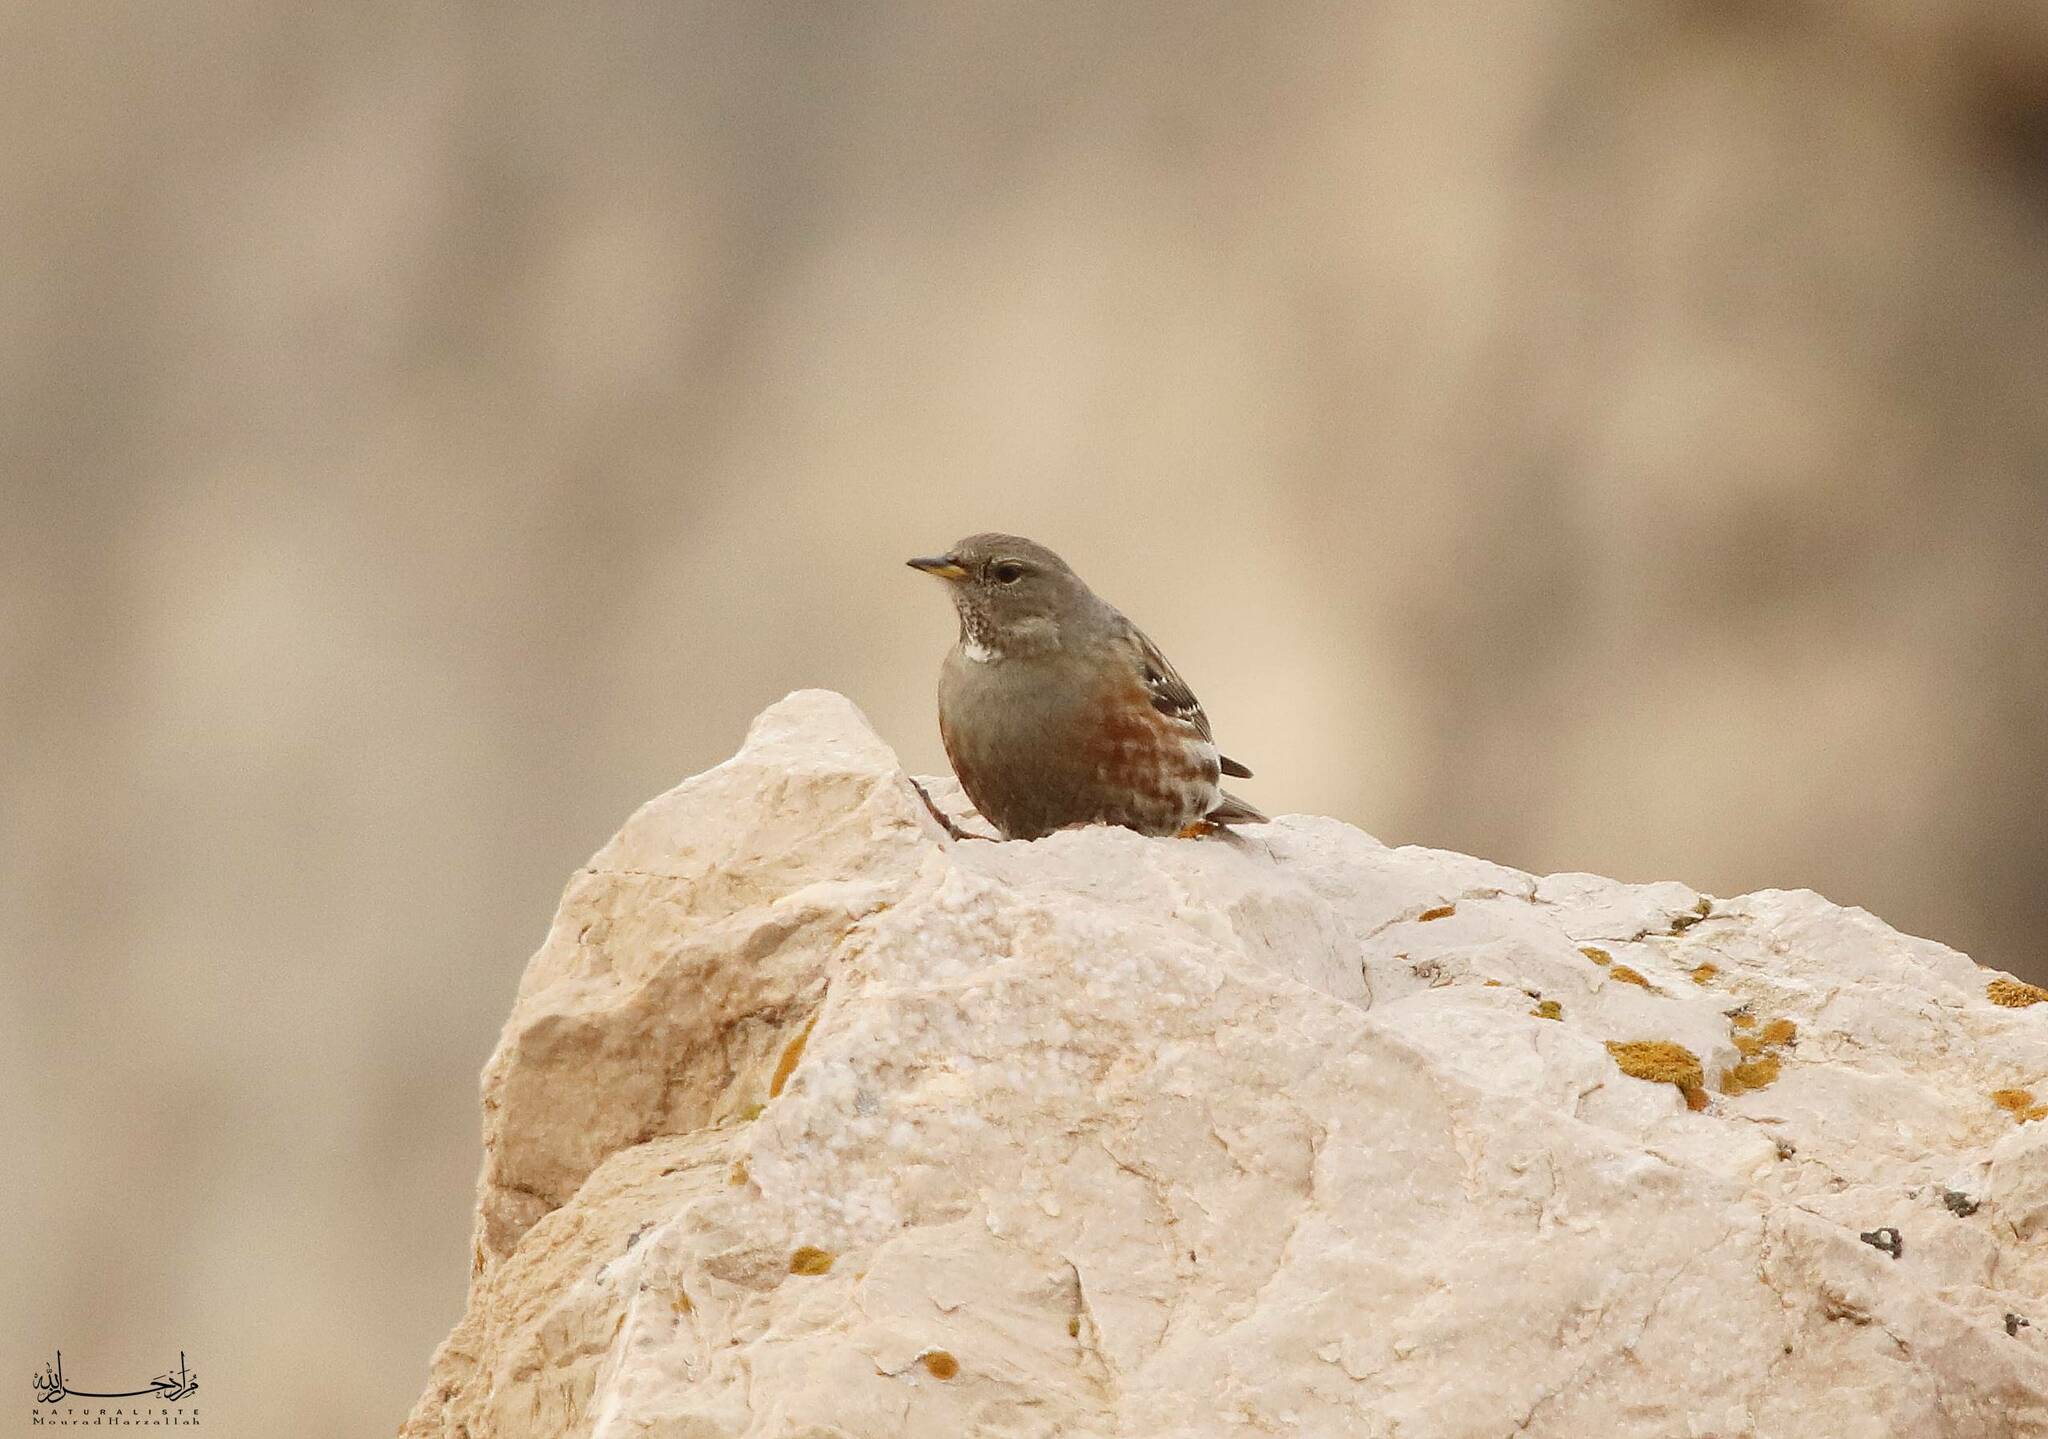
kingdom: Animalia
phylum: Chordata
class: Aves
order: Passeriformes
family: Prunellidae
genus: Prunella
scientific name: Prunella collaris
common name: Alpine accentor
